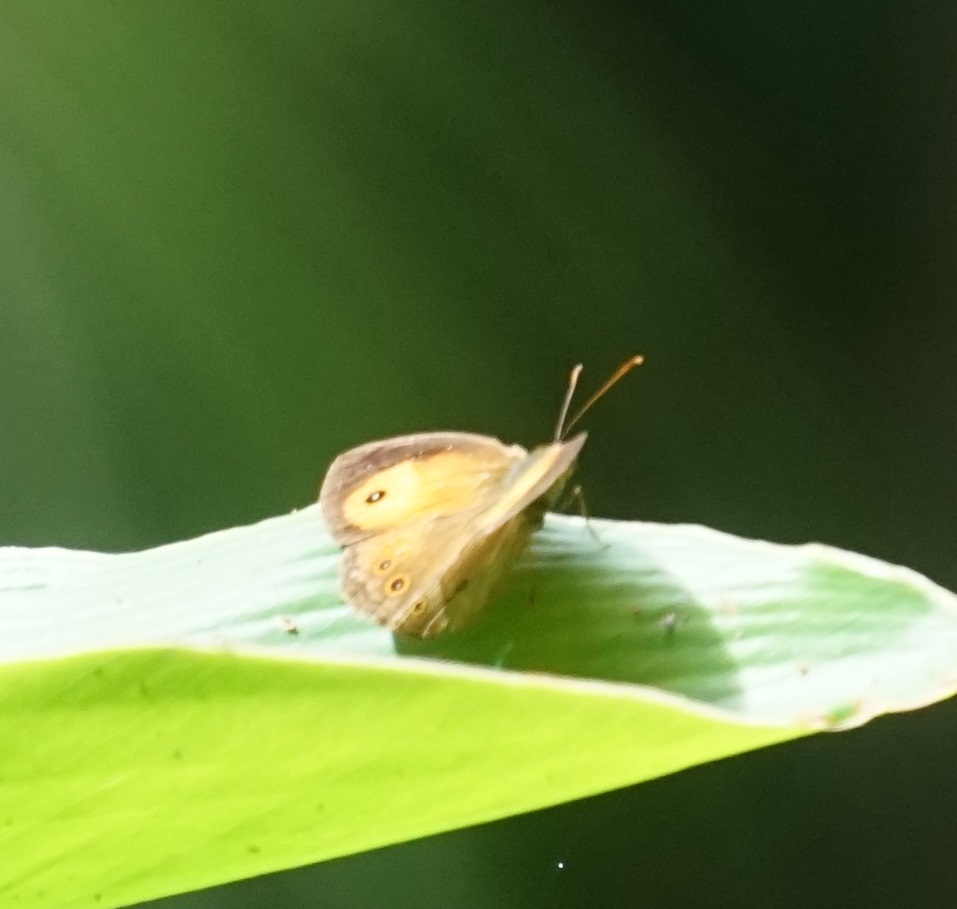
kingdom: Animalia
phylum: Arthropoda
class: Insecta
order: Lepidoptera
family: Nymphalidae
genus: Mycalesis
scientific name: Mycalesis terminus
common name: Orange bushbrown
